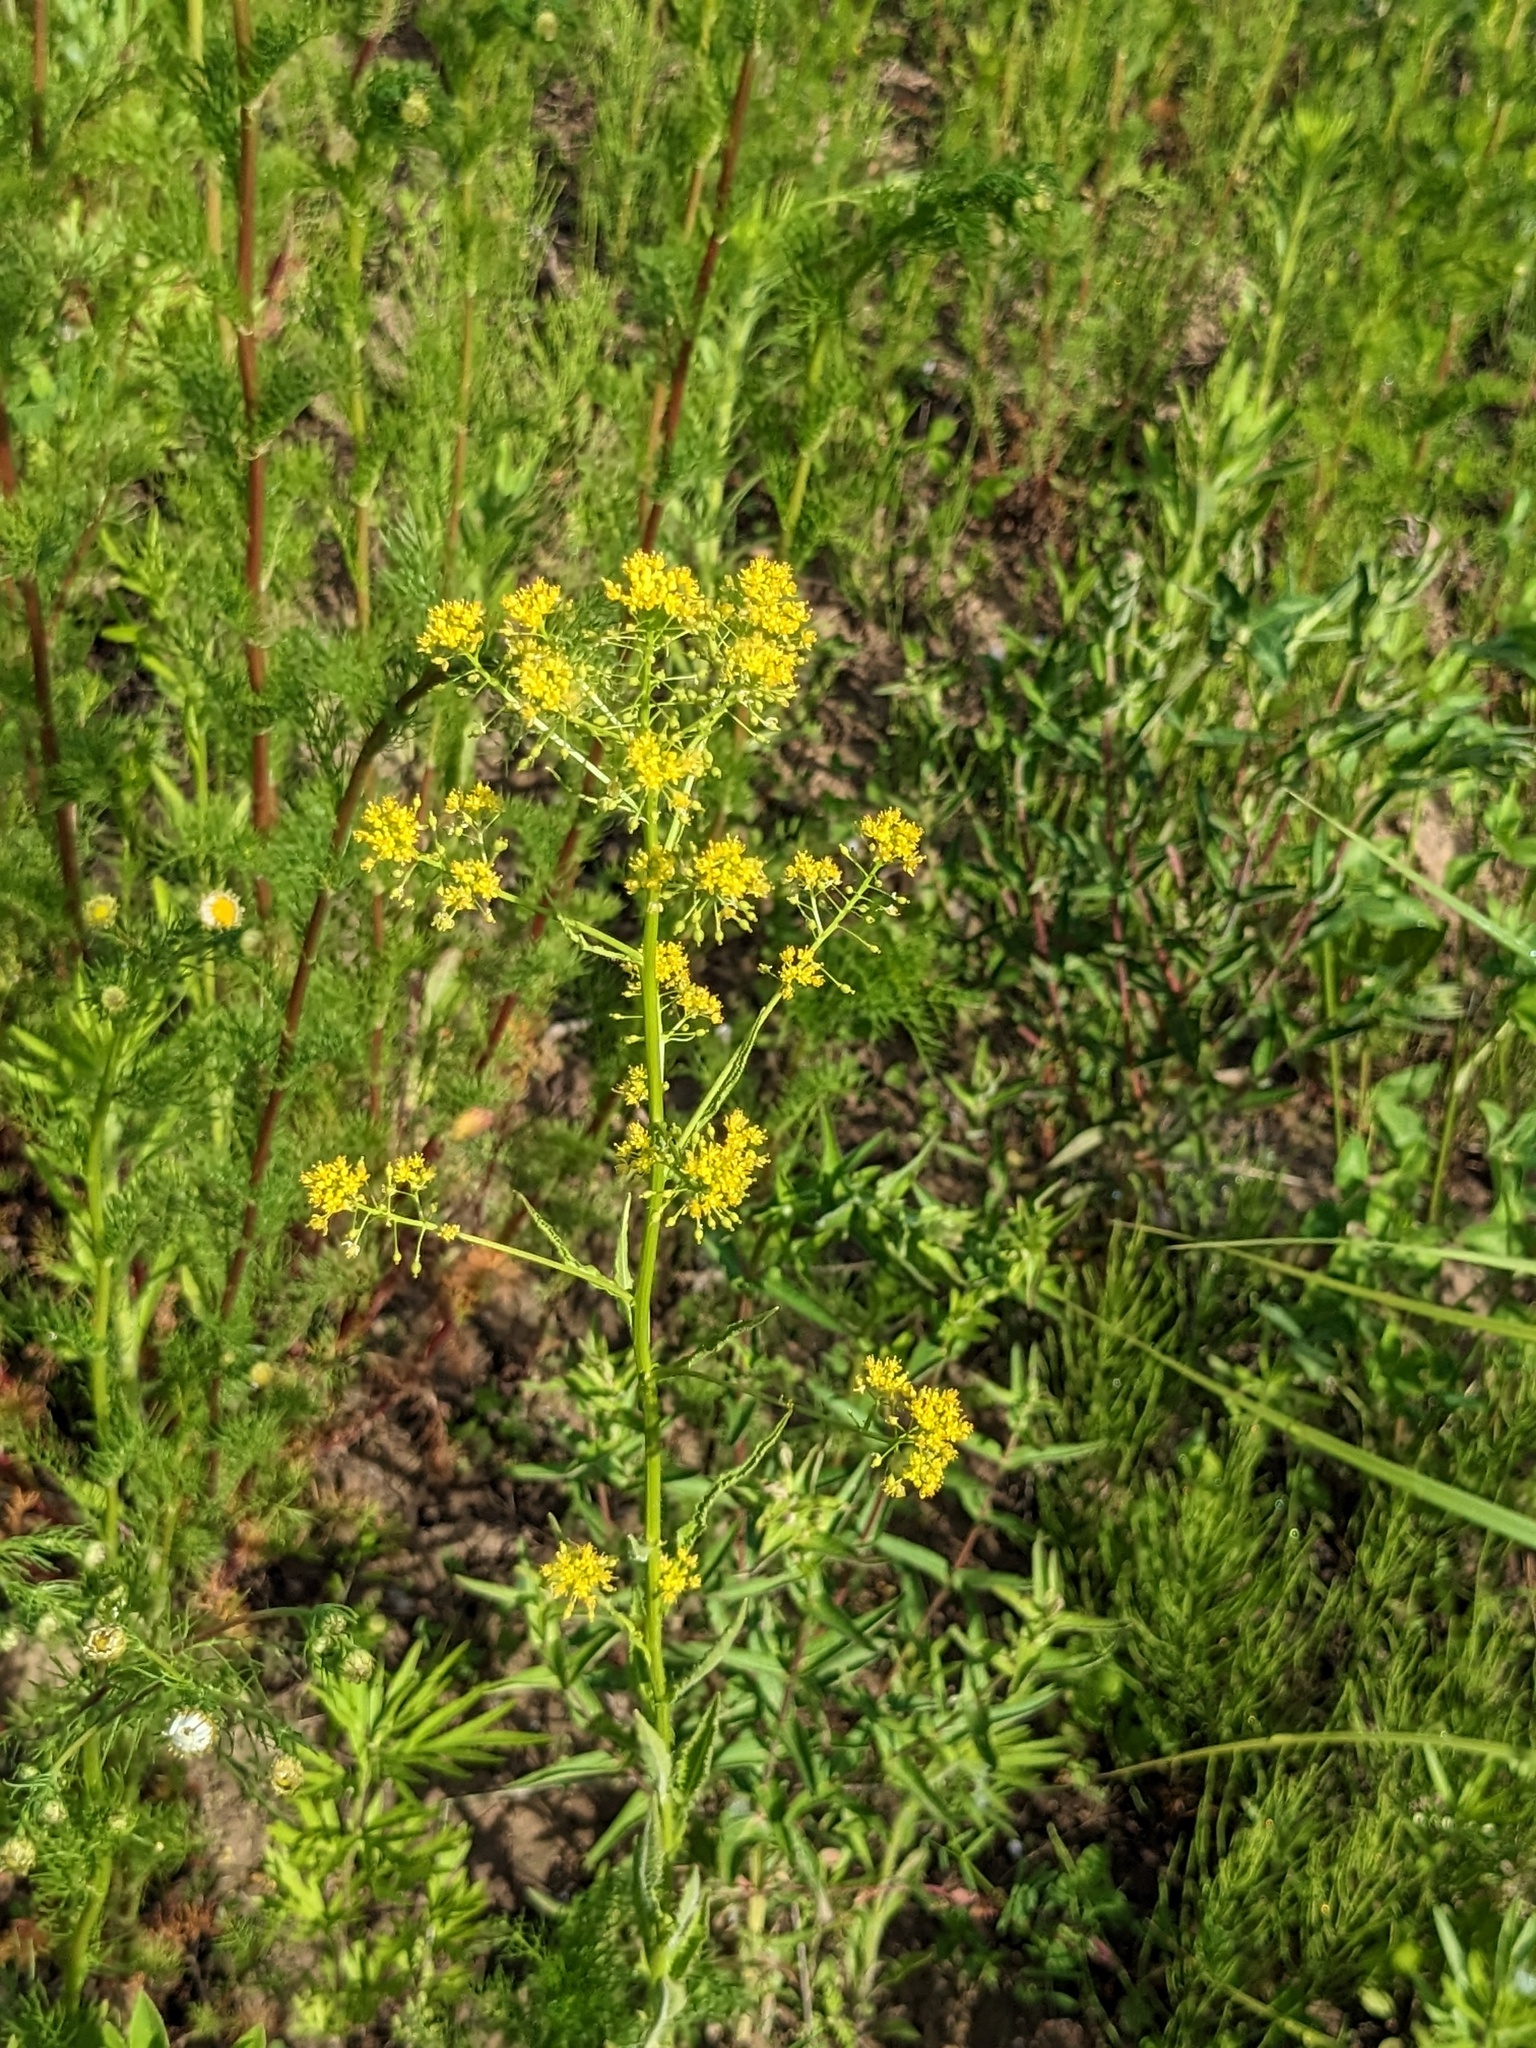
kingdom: Plantae
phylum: Tracheophyta
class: Magnoliopsida
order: Brassicales
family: Brassicaceae
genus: Rorippa
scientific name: Rorippa globosa
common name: Globe yellowcress
